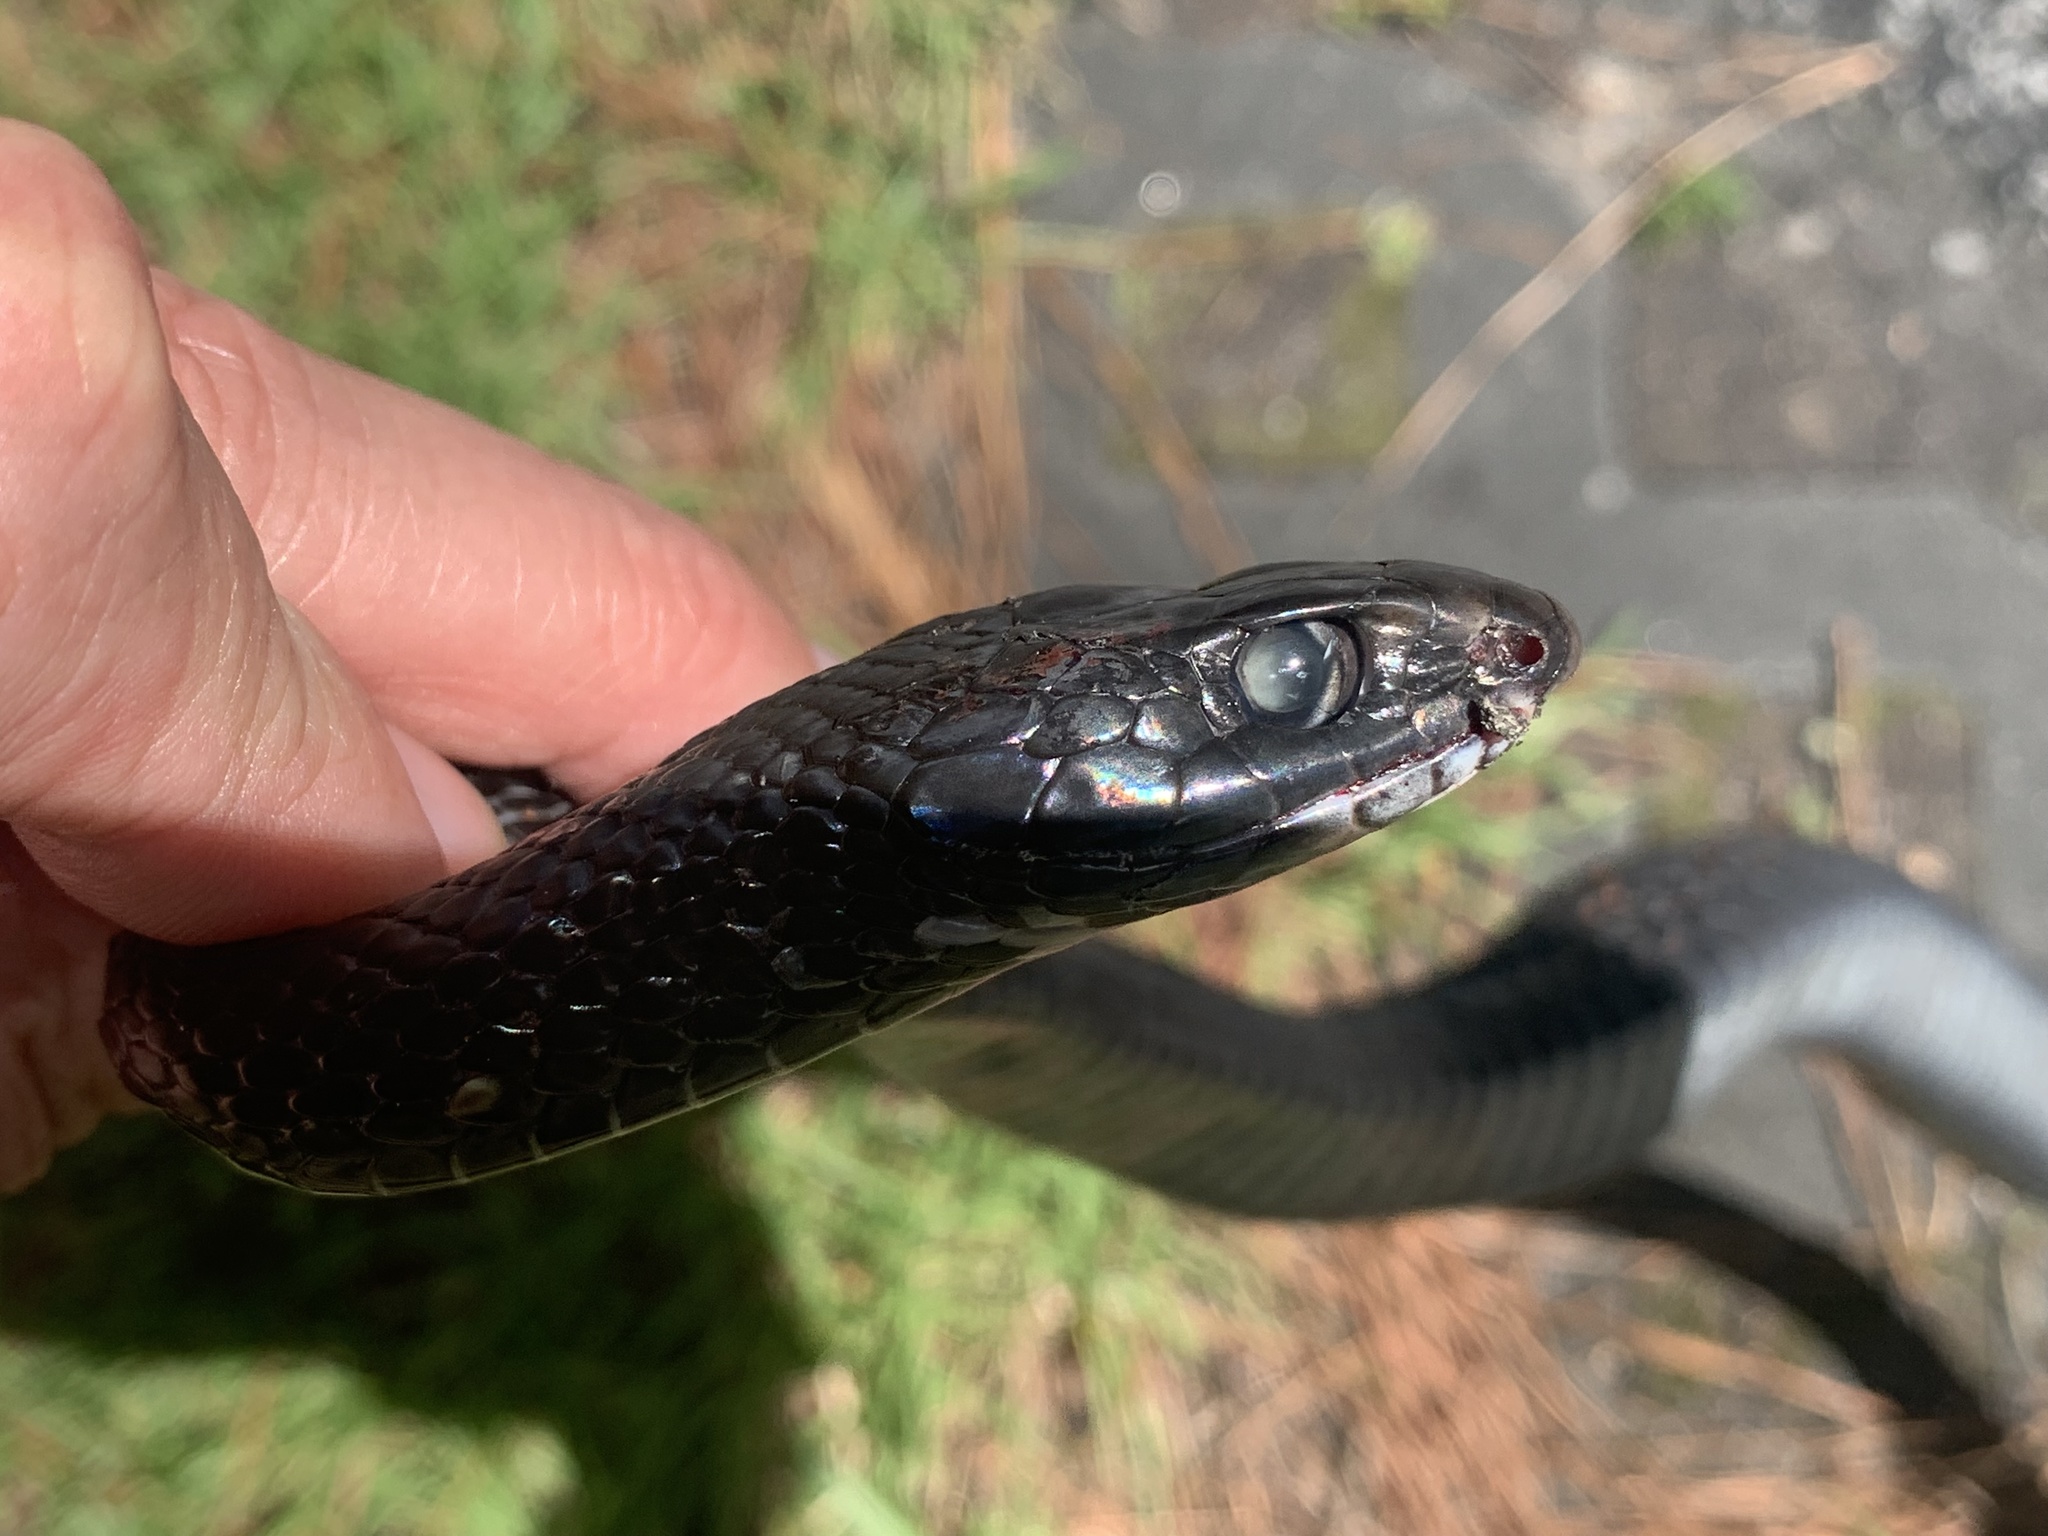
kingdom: Animalia
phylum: Chordata
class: Squamata
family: Colubridae
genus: Coluber
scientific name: Coluber constrictor
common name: Eastern racer
